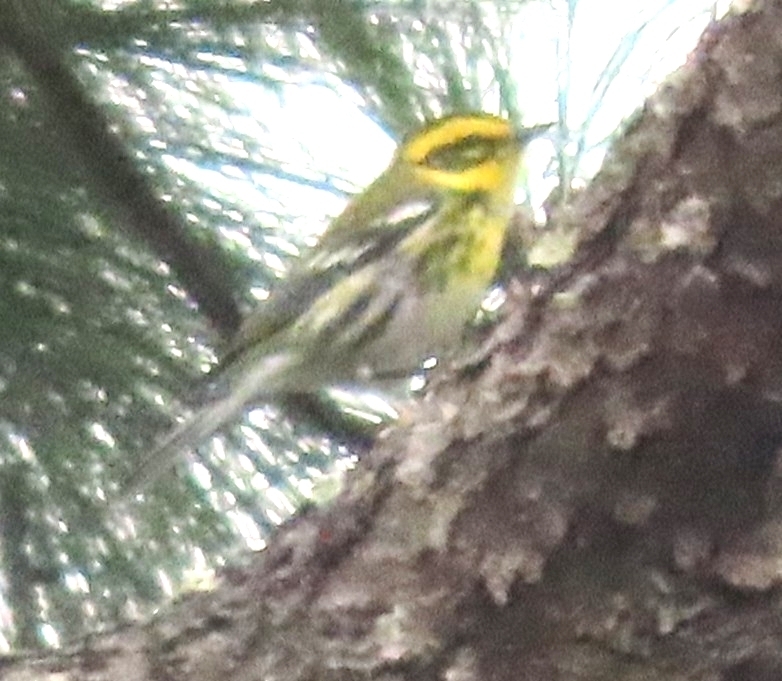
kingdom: Animalia
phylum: Chordata
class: Aves
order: Passeriformes
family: Parulidae
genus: Setophaga
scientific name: Setophaga townsendi
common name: Townsend's warbler
